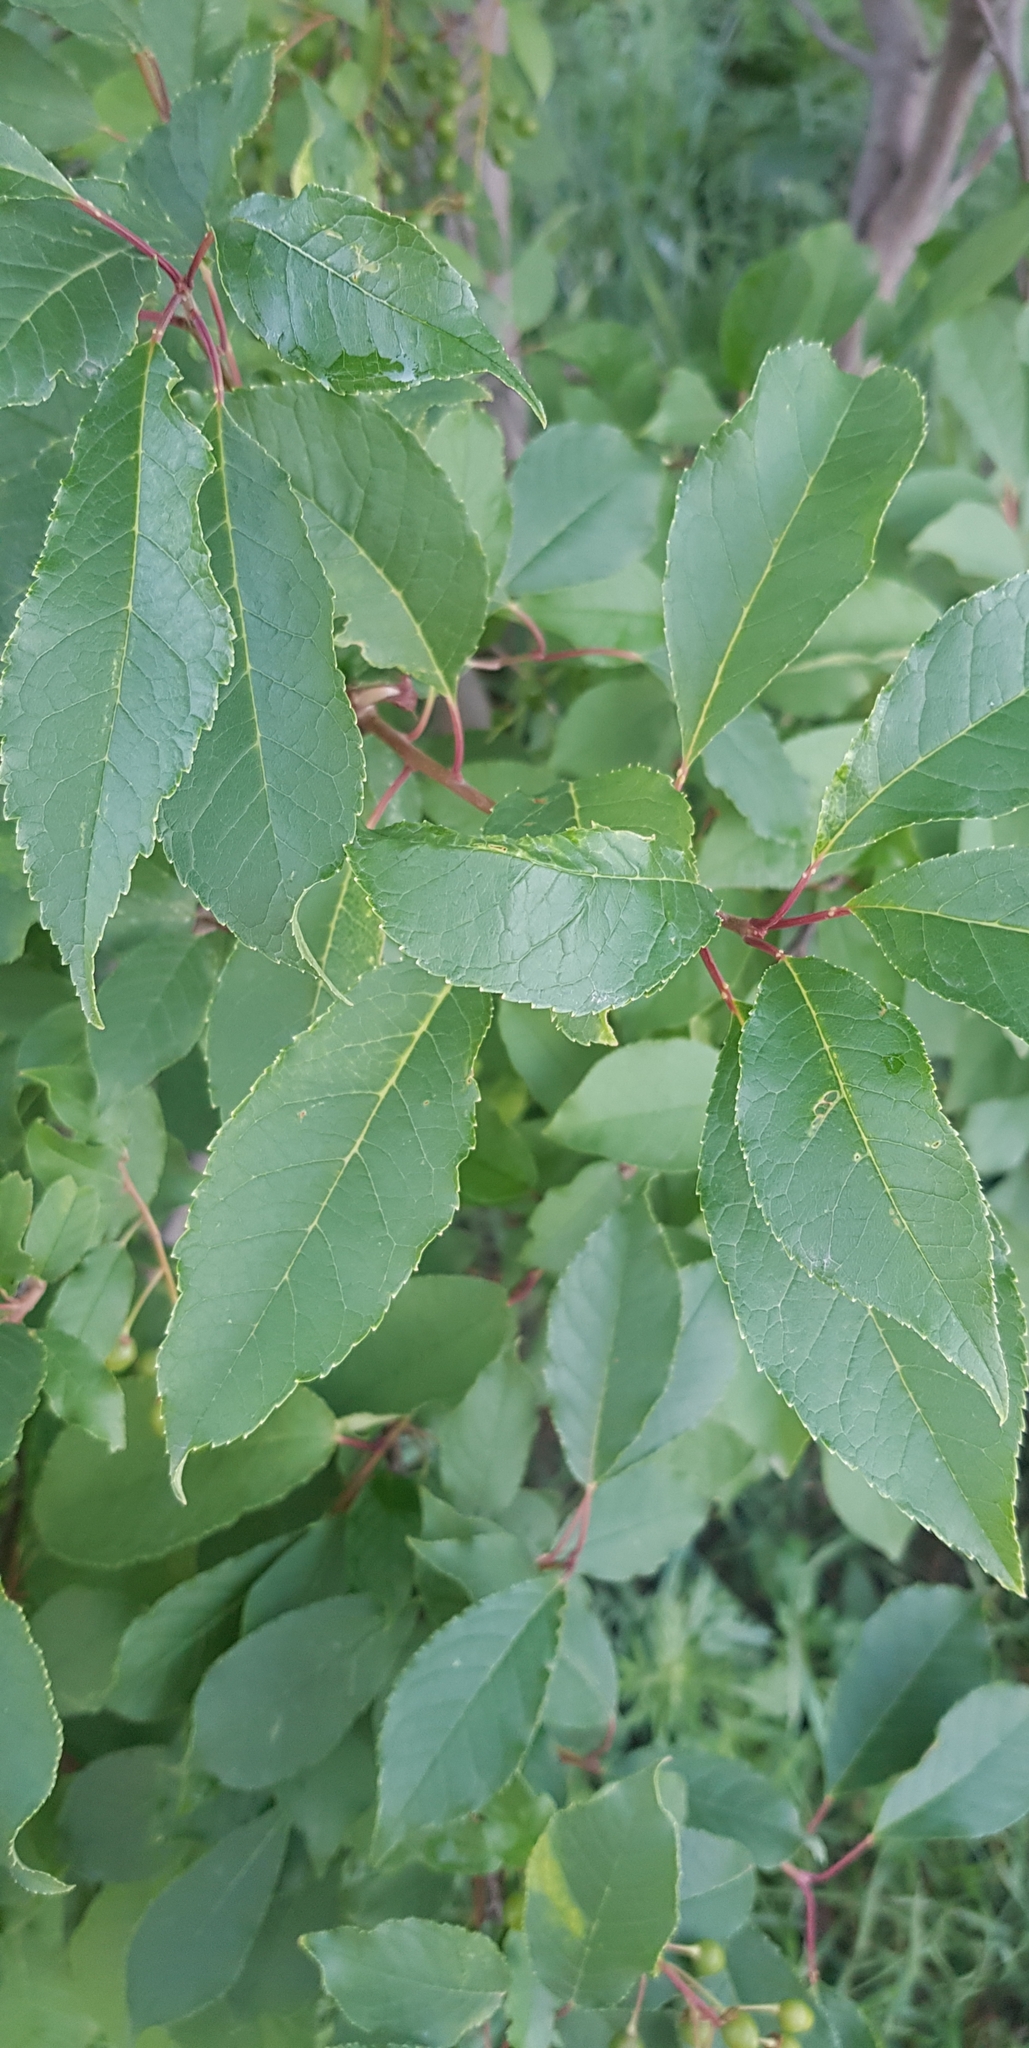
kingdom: Plantae
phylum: Tracheophyta
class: Magnoliopsida
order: Rosales
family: Rosaceae
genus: Prunus
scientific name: Prunus padus
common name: Bird cherry
